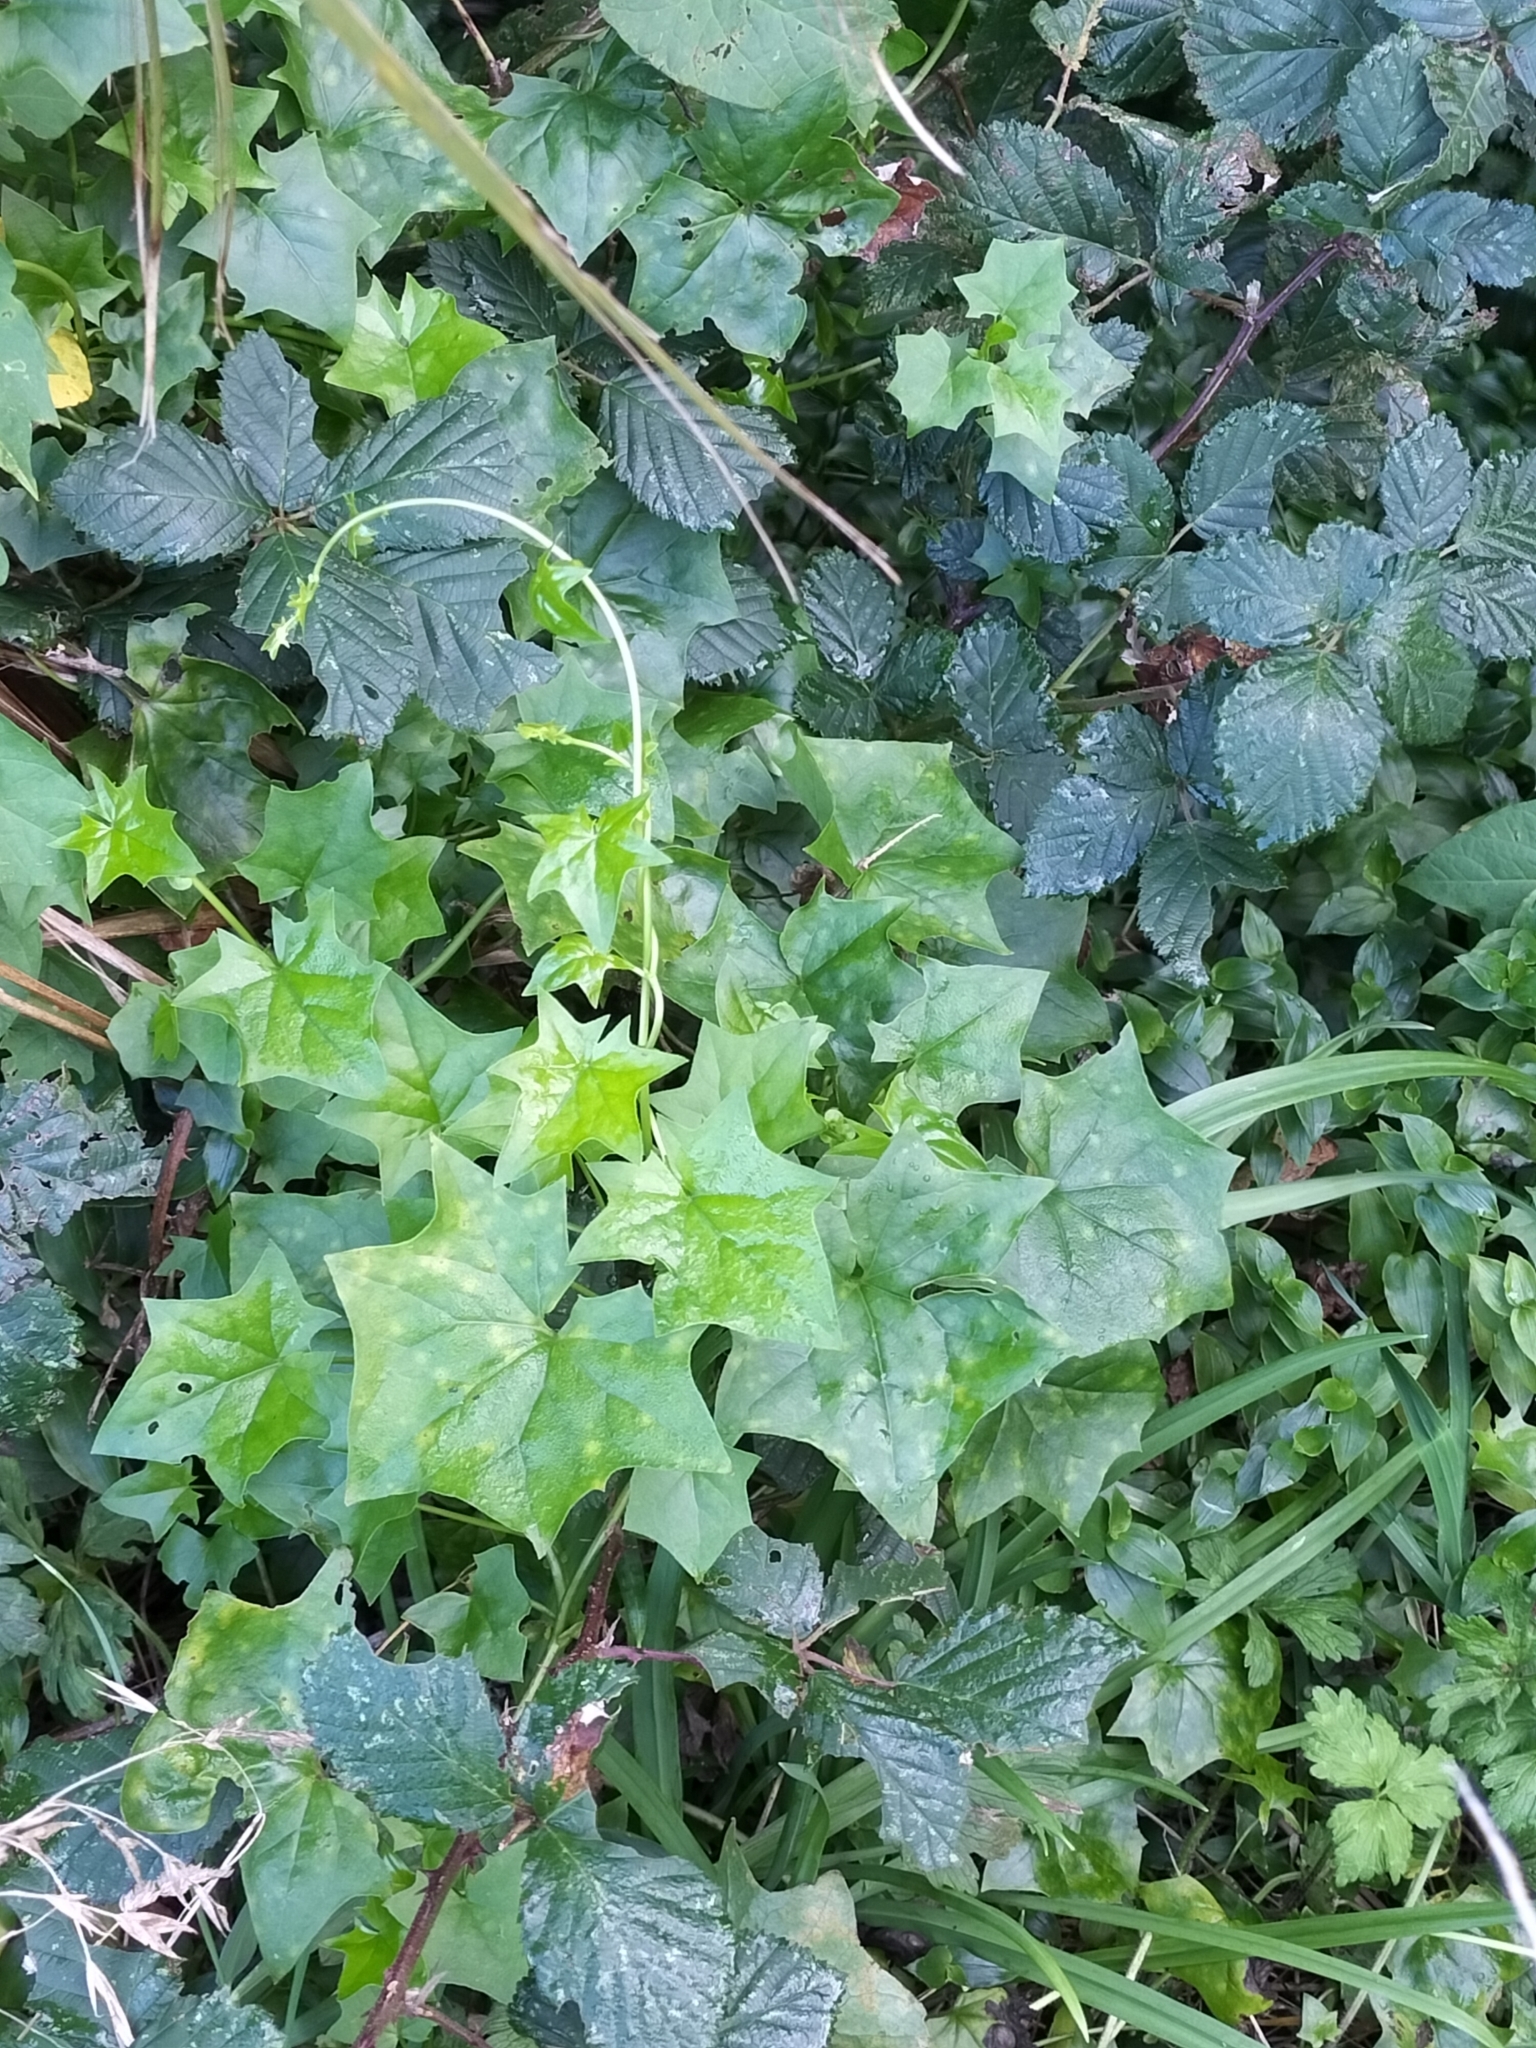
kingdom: Plantae
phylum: Tracheophyta
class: Magnoliopsida
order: Asterales
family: Asteraceae
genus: Delairea
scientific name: Delairea odorata
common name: Cape-ivy
